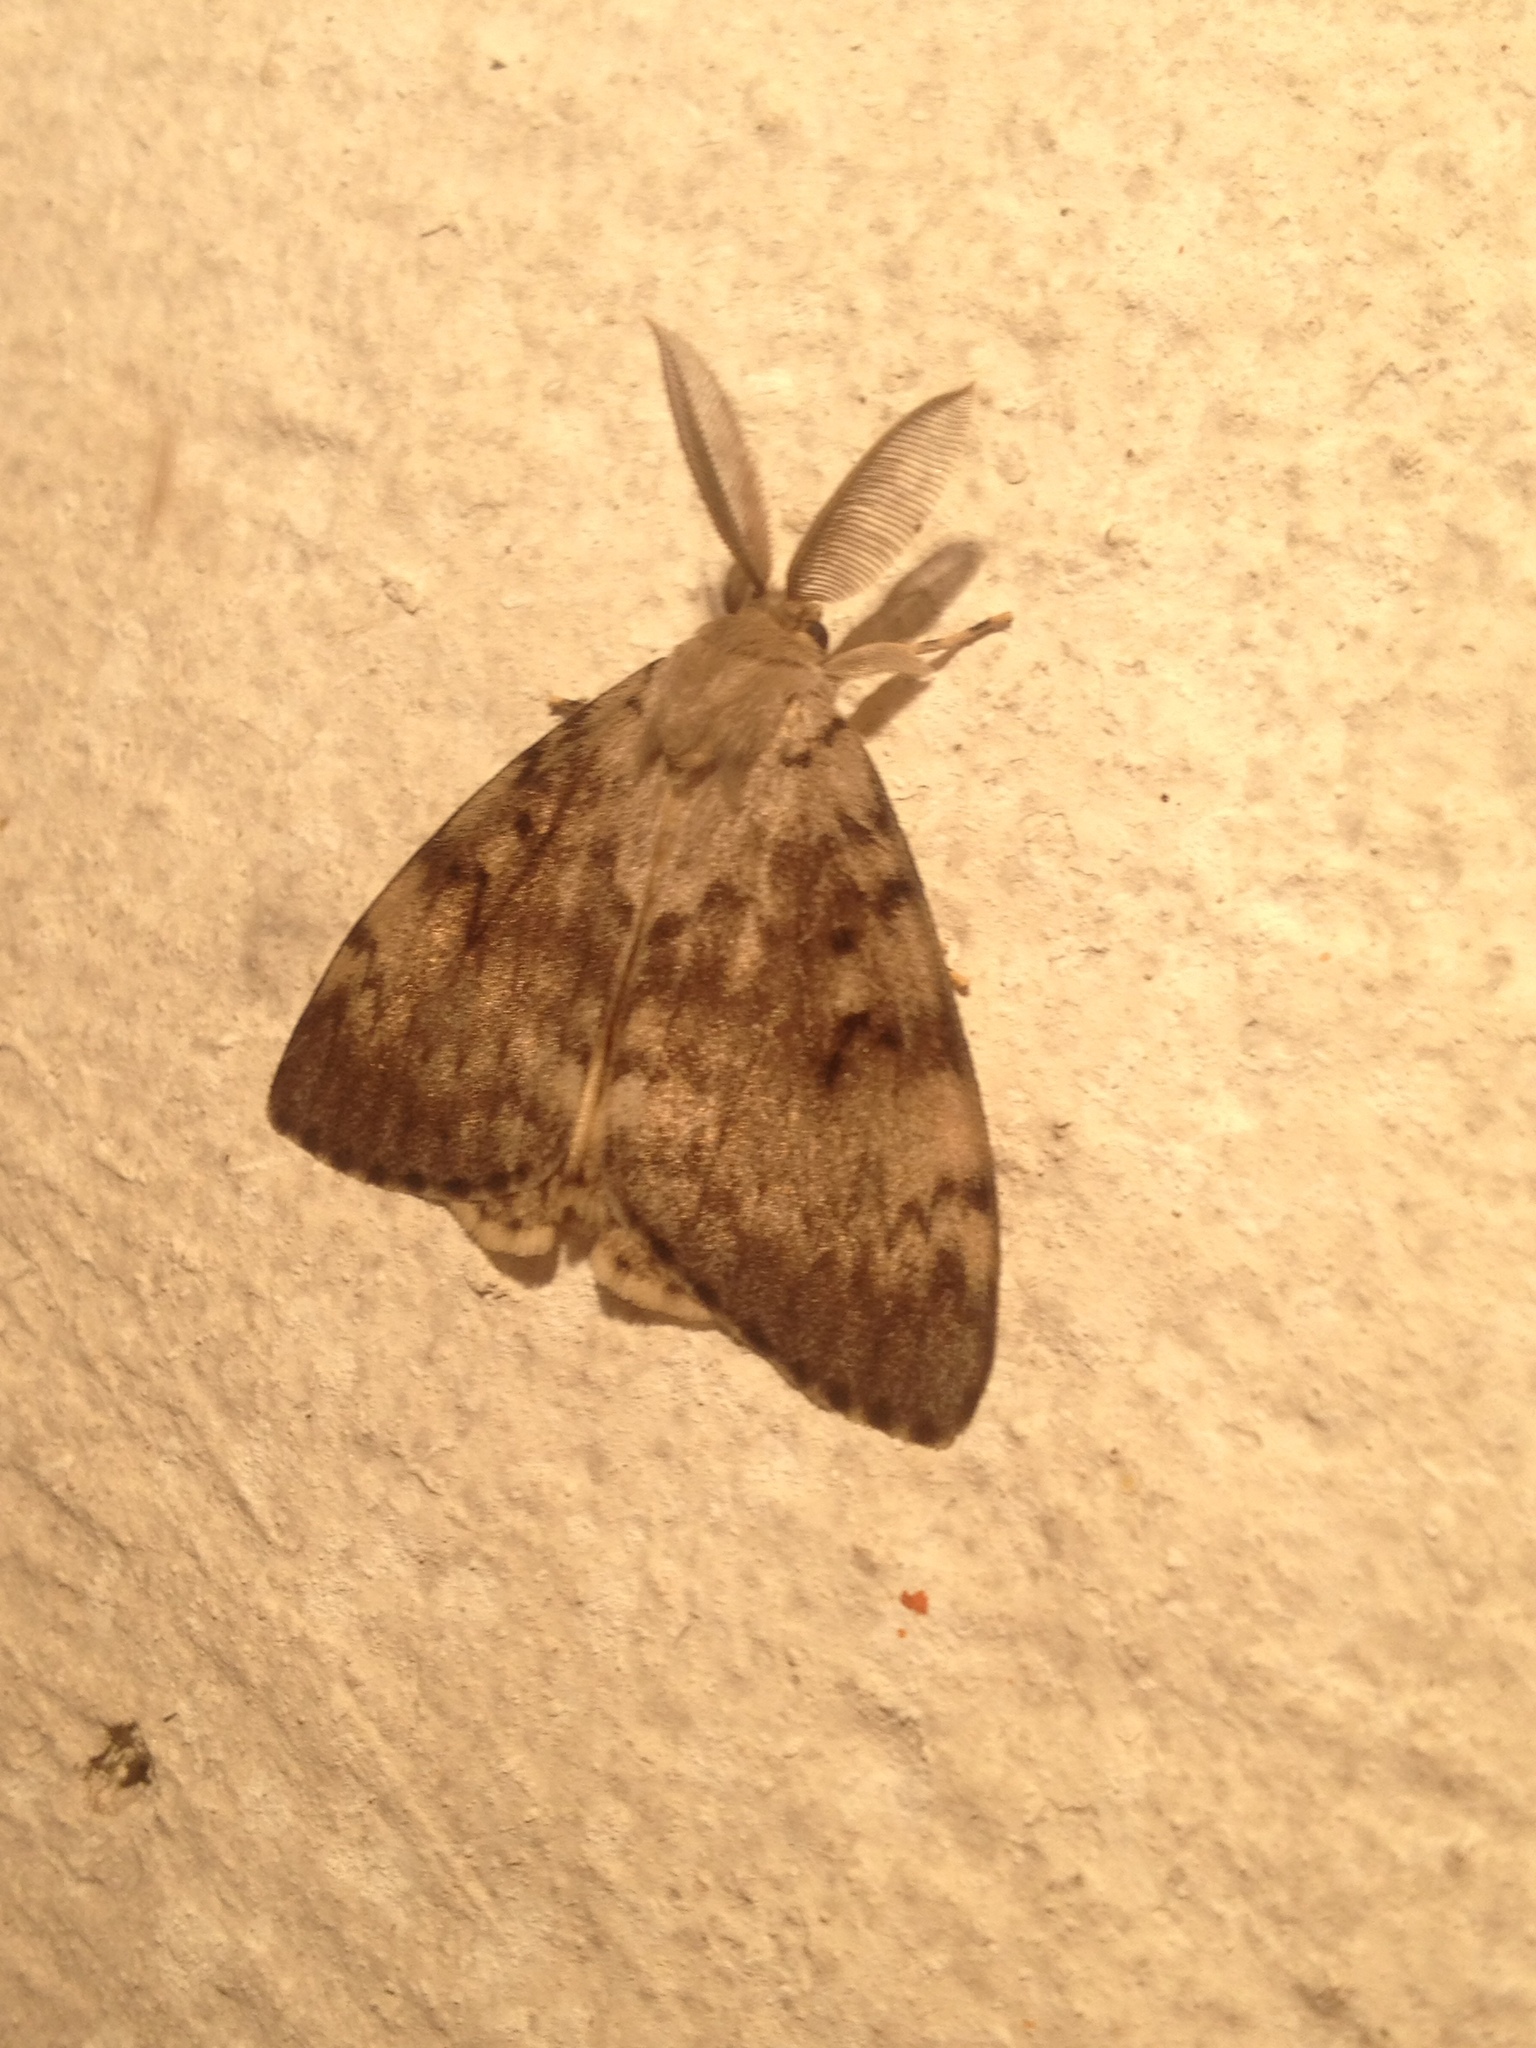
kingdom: Animalia
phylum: Arthropoda
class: Insecta
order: Lepidoptera
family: Erebidae
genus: Lymantria
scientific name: Lymantria dispar
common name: Gypsy moth
